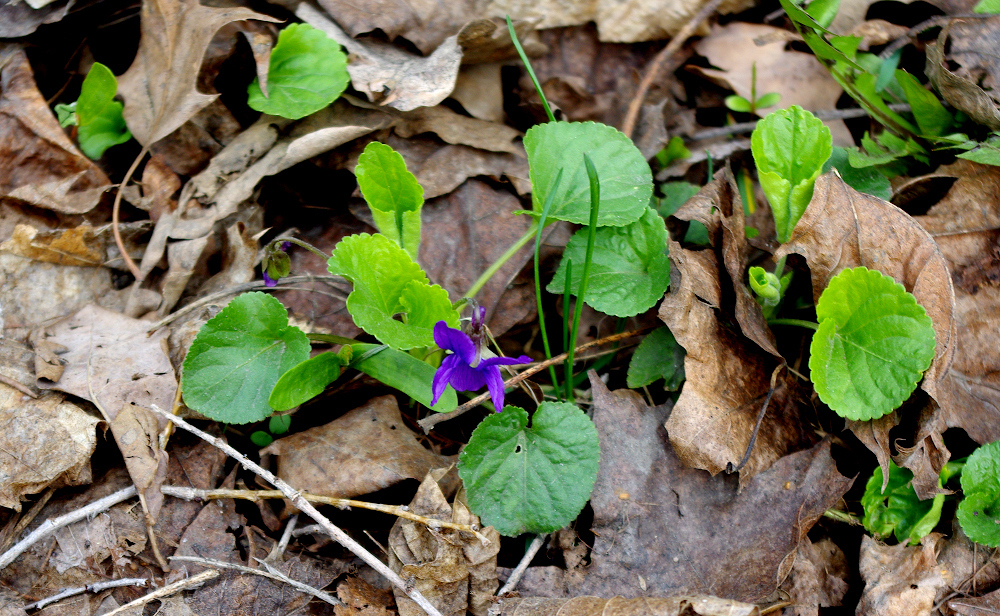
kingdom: Plantae
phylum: Tracheophyta
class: Magnoliopsida
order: Malpighiales
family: Violaceae
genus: Viola
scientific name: Viola odorata
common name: Sweet violet
